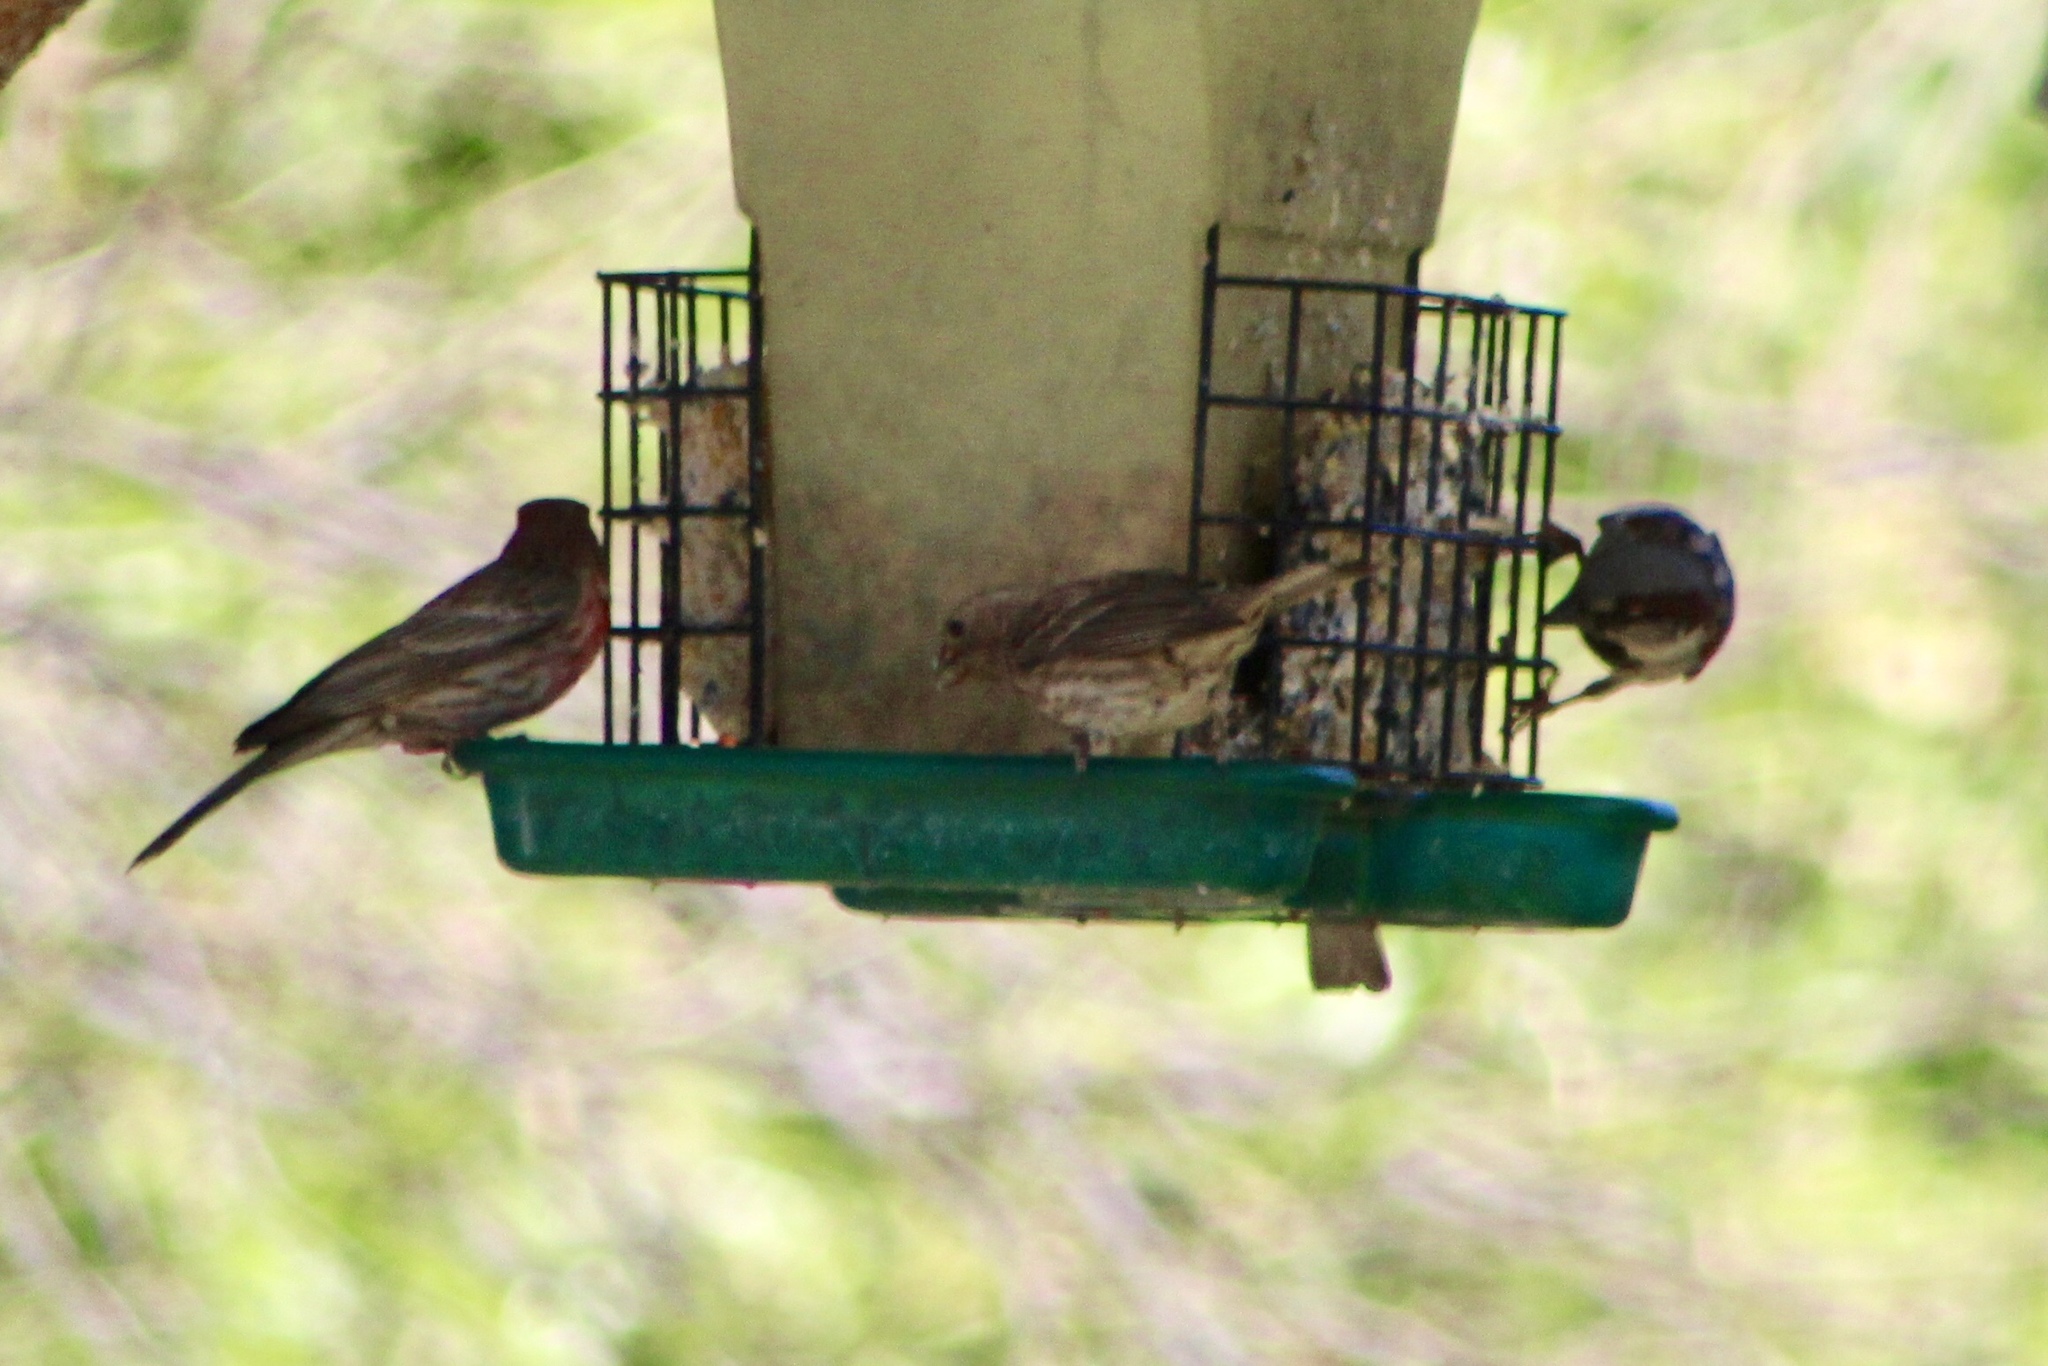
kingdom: Animalia
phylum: Chordata
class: Aves
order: Passeriformes
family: Fringillidae
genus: Haemorhous
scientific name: Haemorhous mexicanus
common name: House finch
